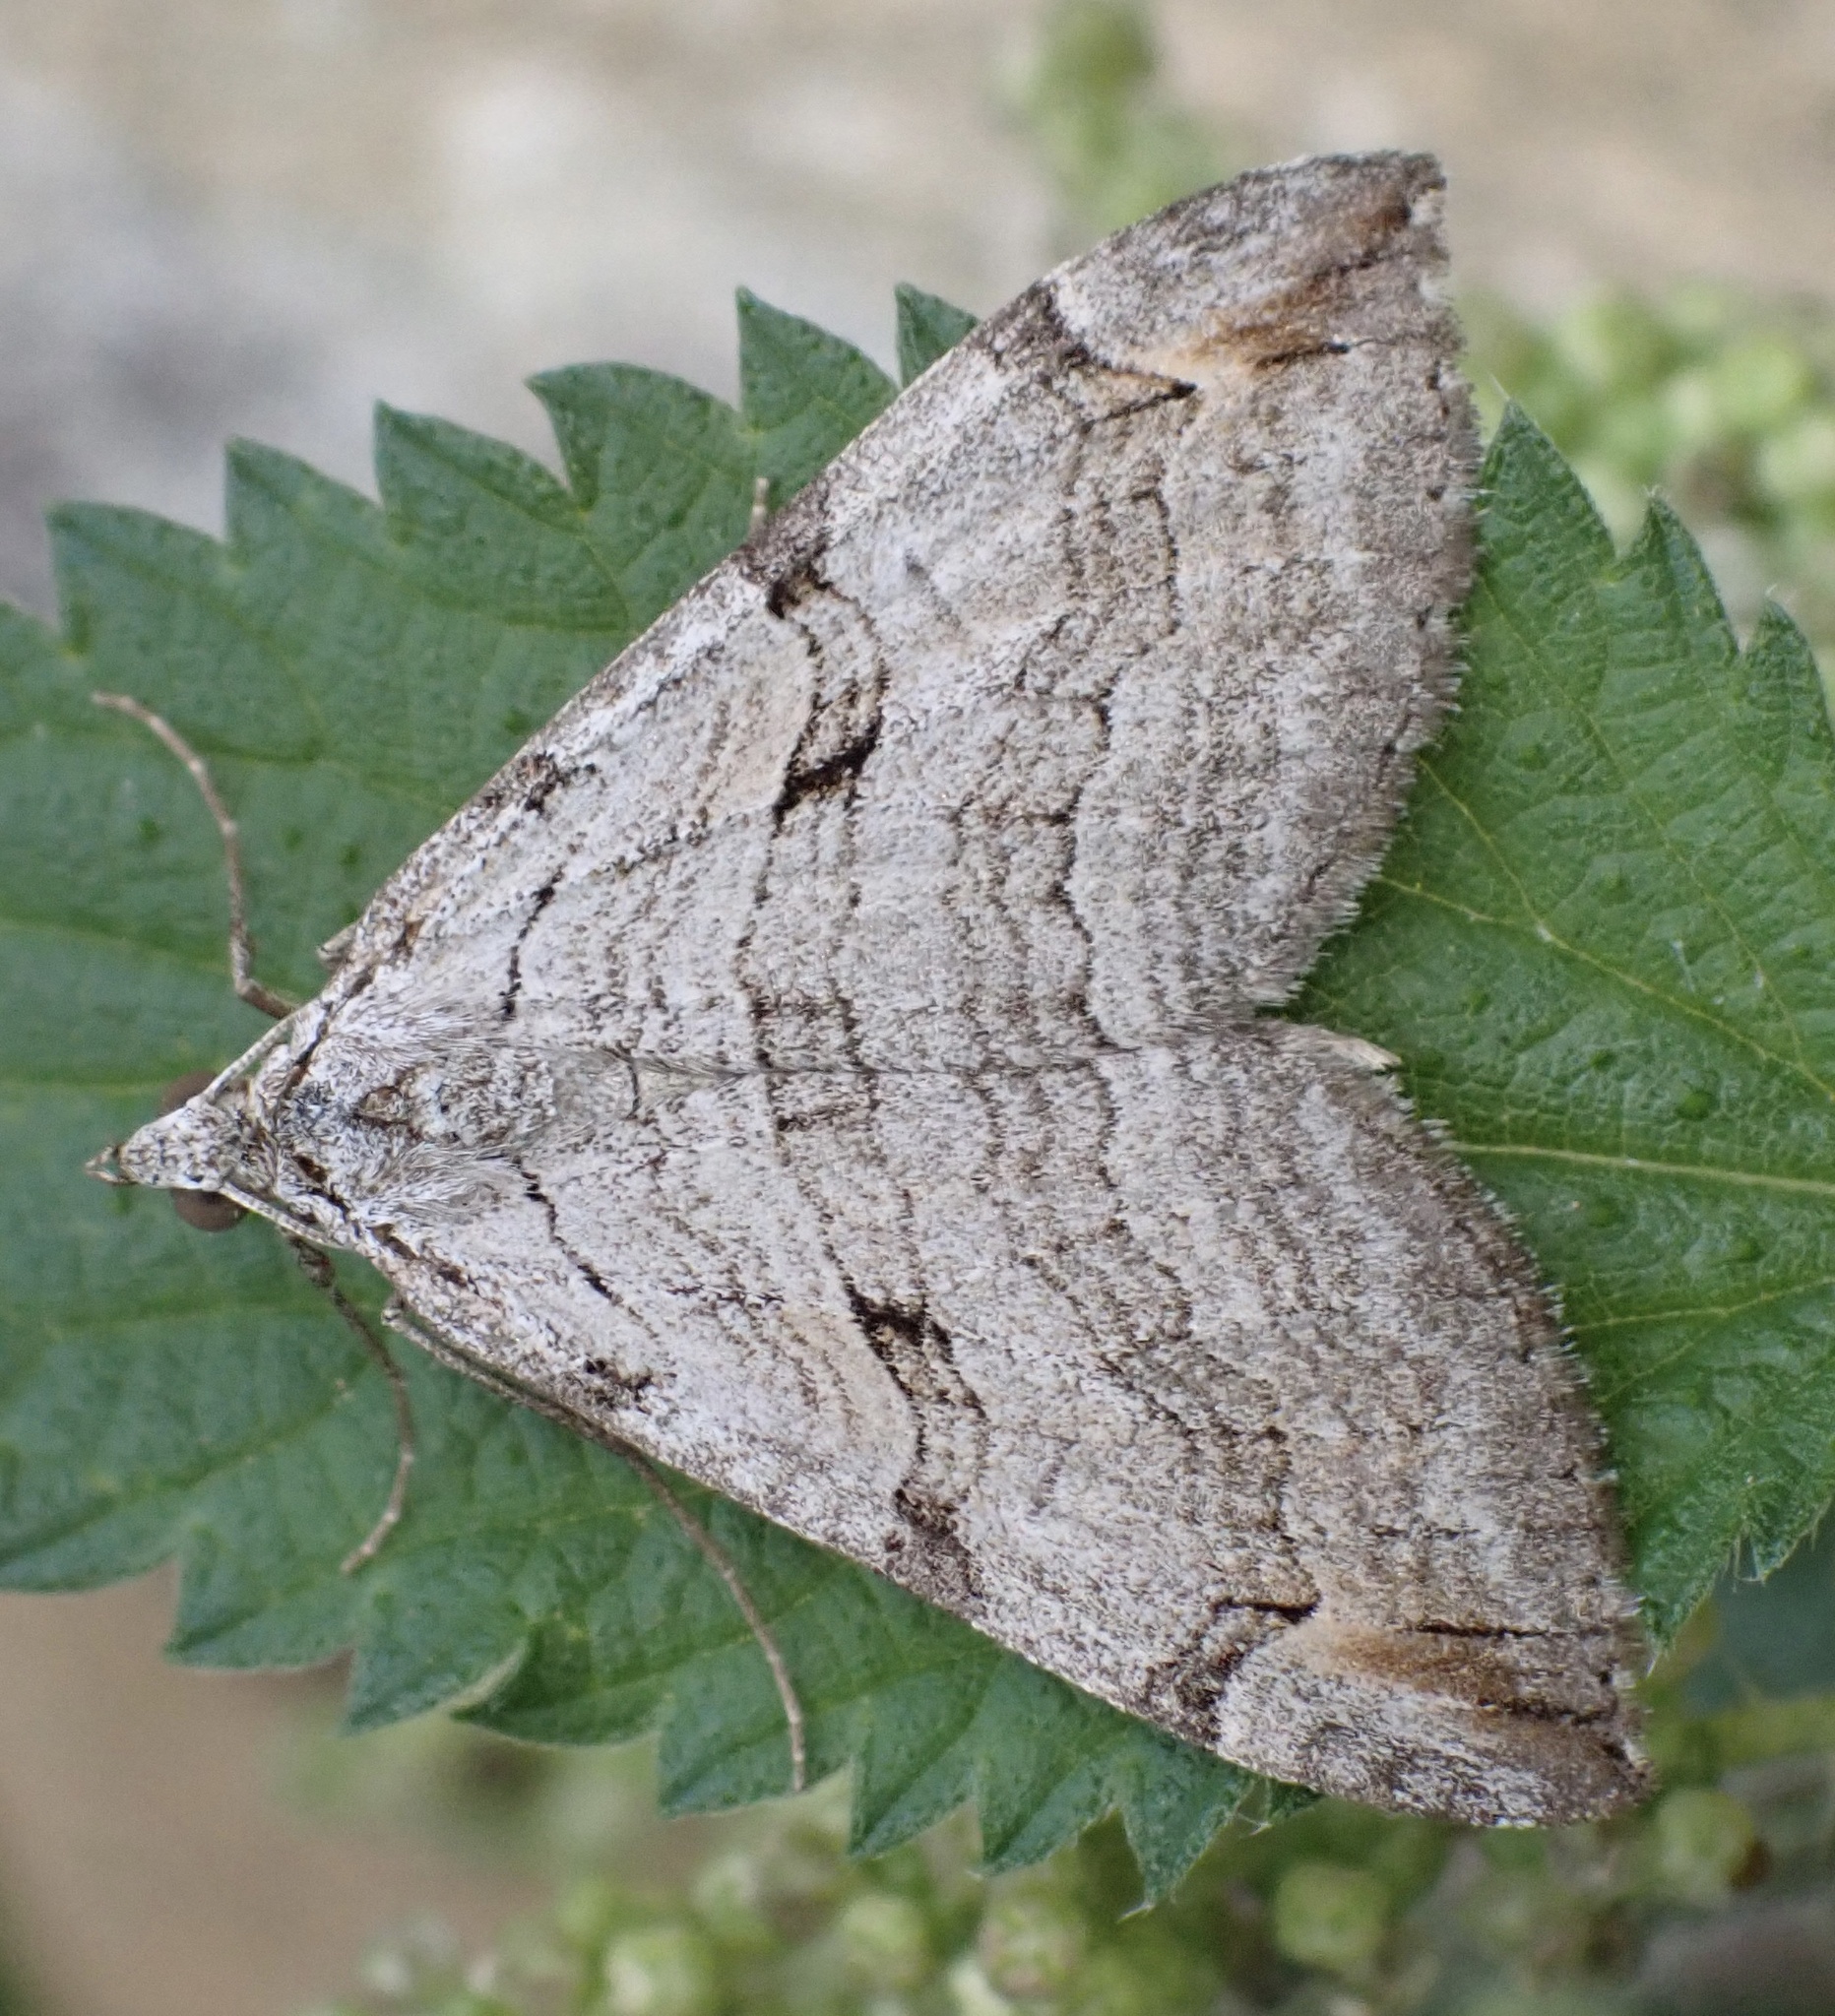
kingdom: Animalia
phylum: Arthropoda
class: Insecta
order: Lepidoptera
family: Geometridae
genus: Aplocera
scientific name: Aplocera plagiata
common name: Treble-bar
